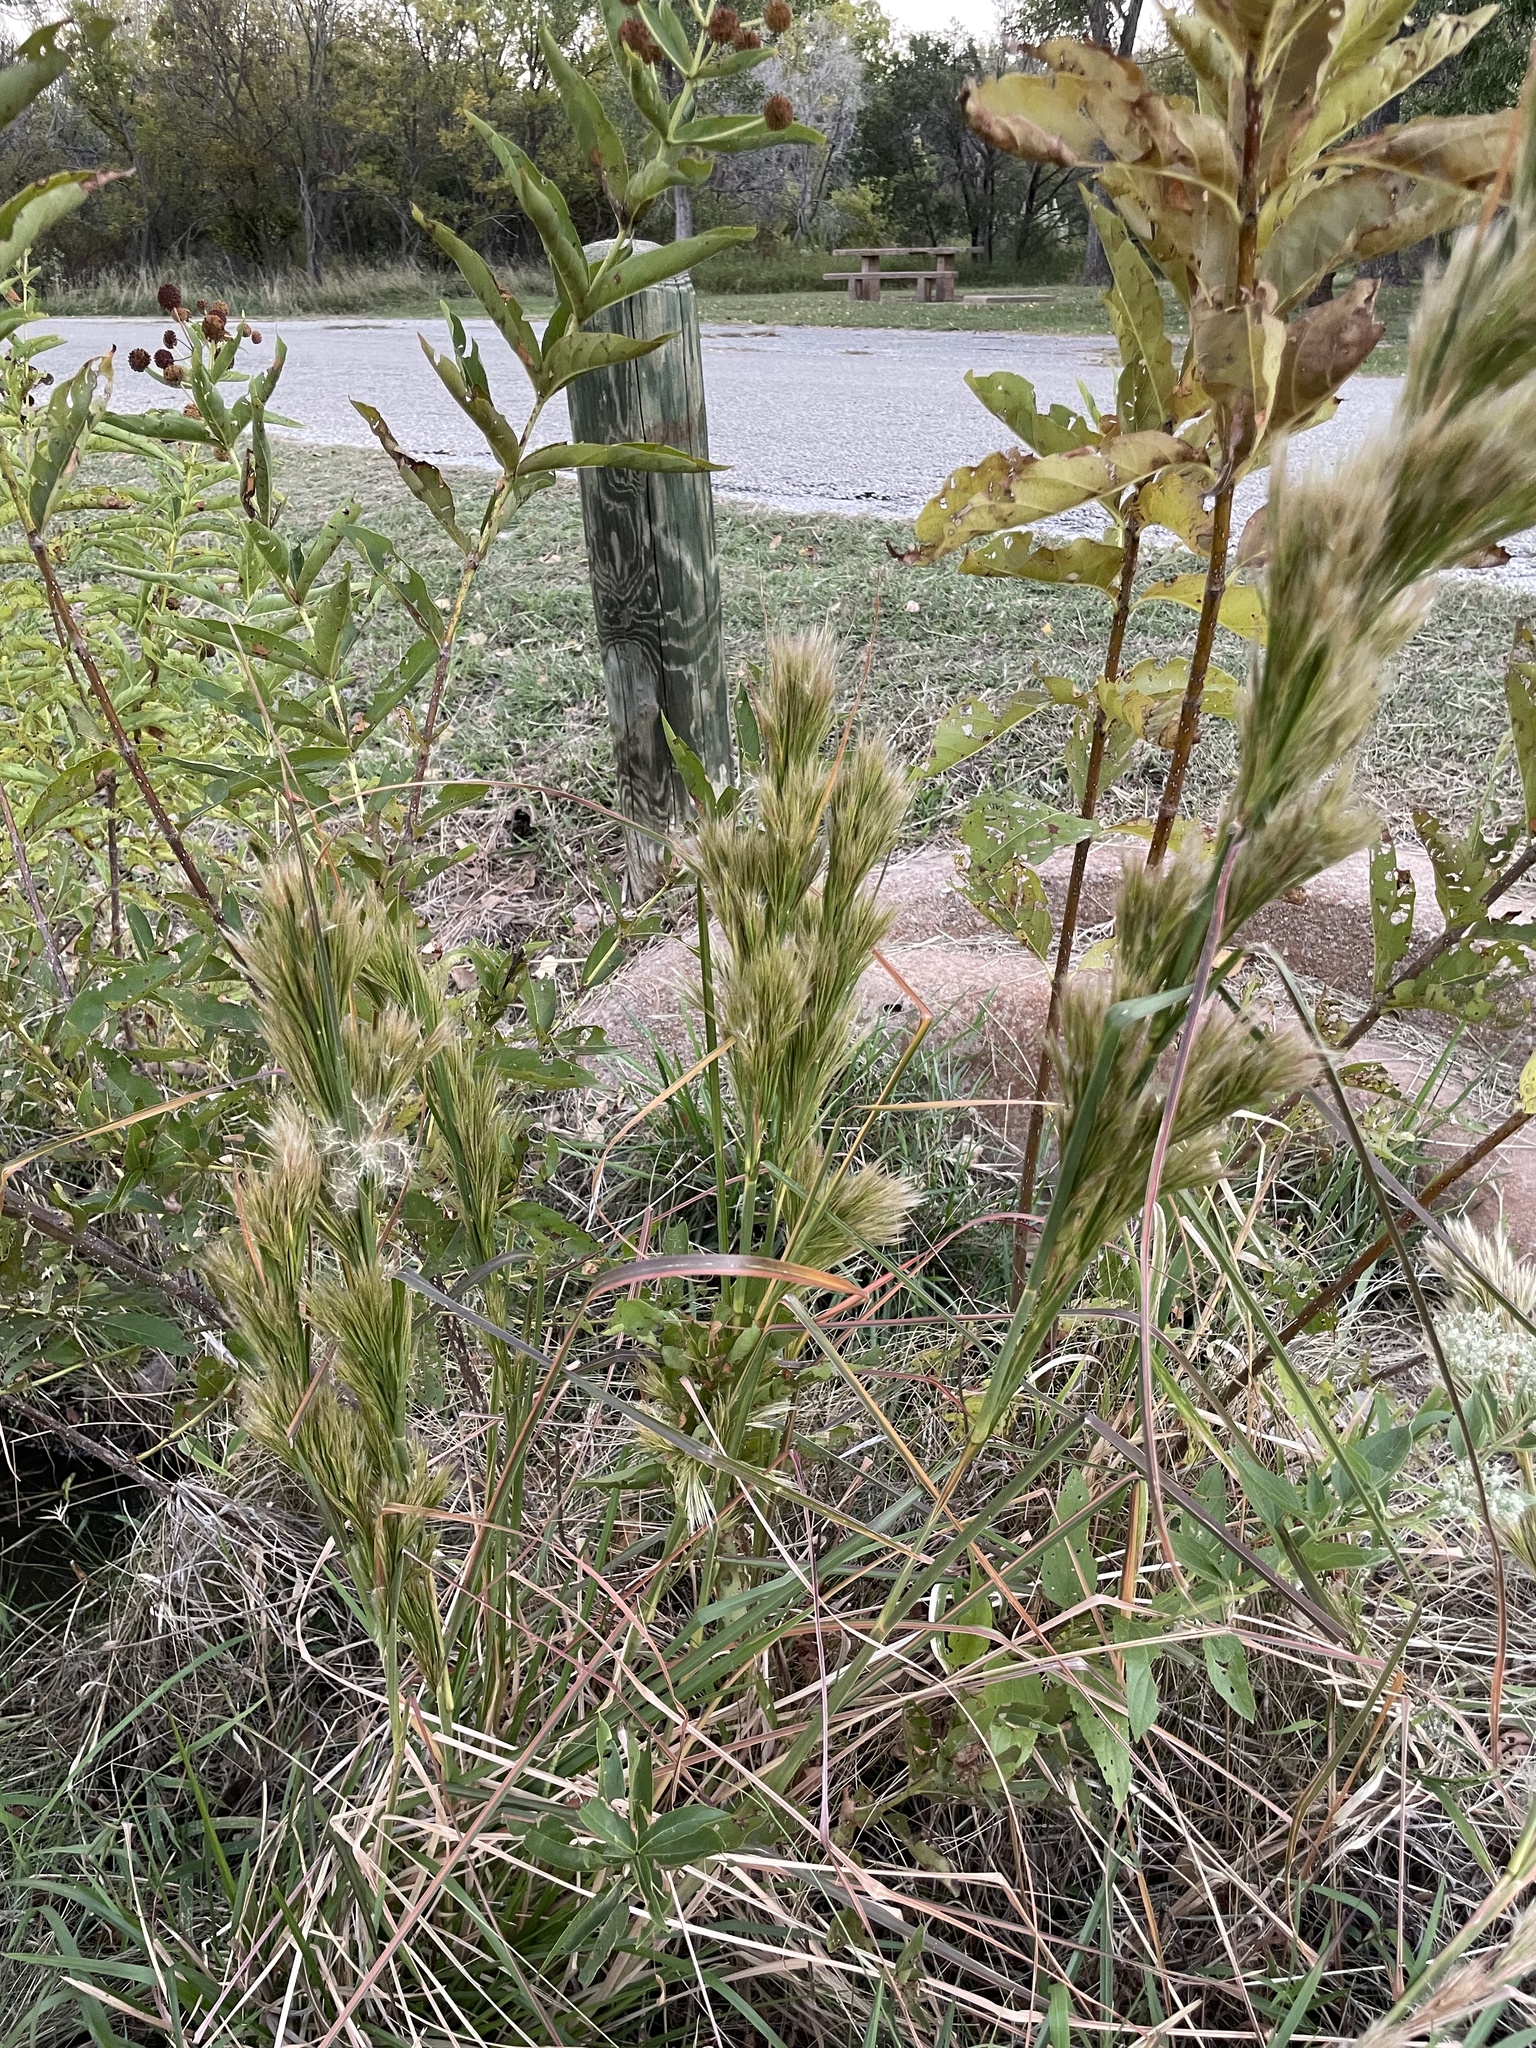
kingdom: Plantae
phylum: Tracheophyta
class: Liliopsida
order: Poales
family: Poaceae
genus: Andropogon
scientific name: Andropogon tenuispatheus
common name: Bushy bluestem
